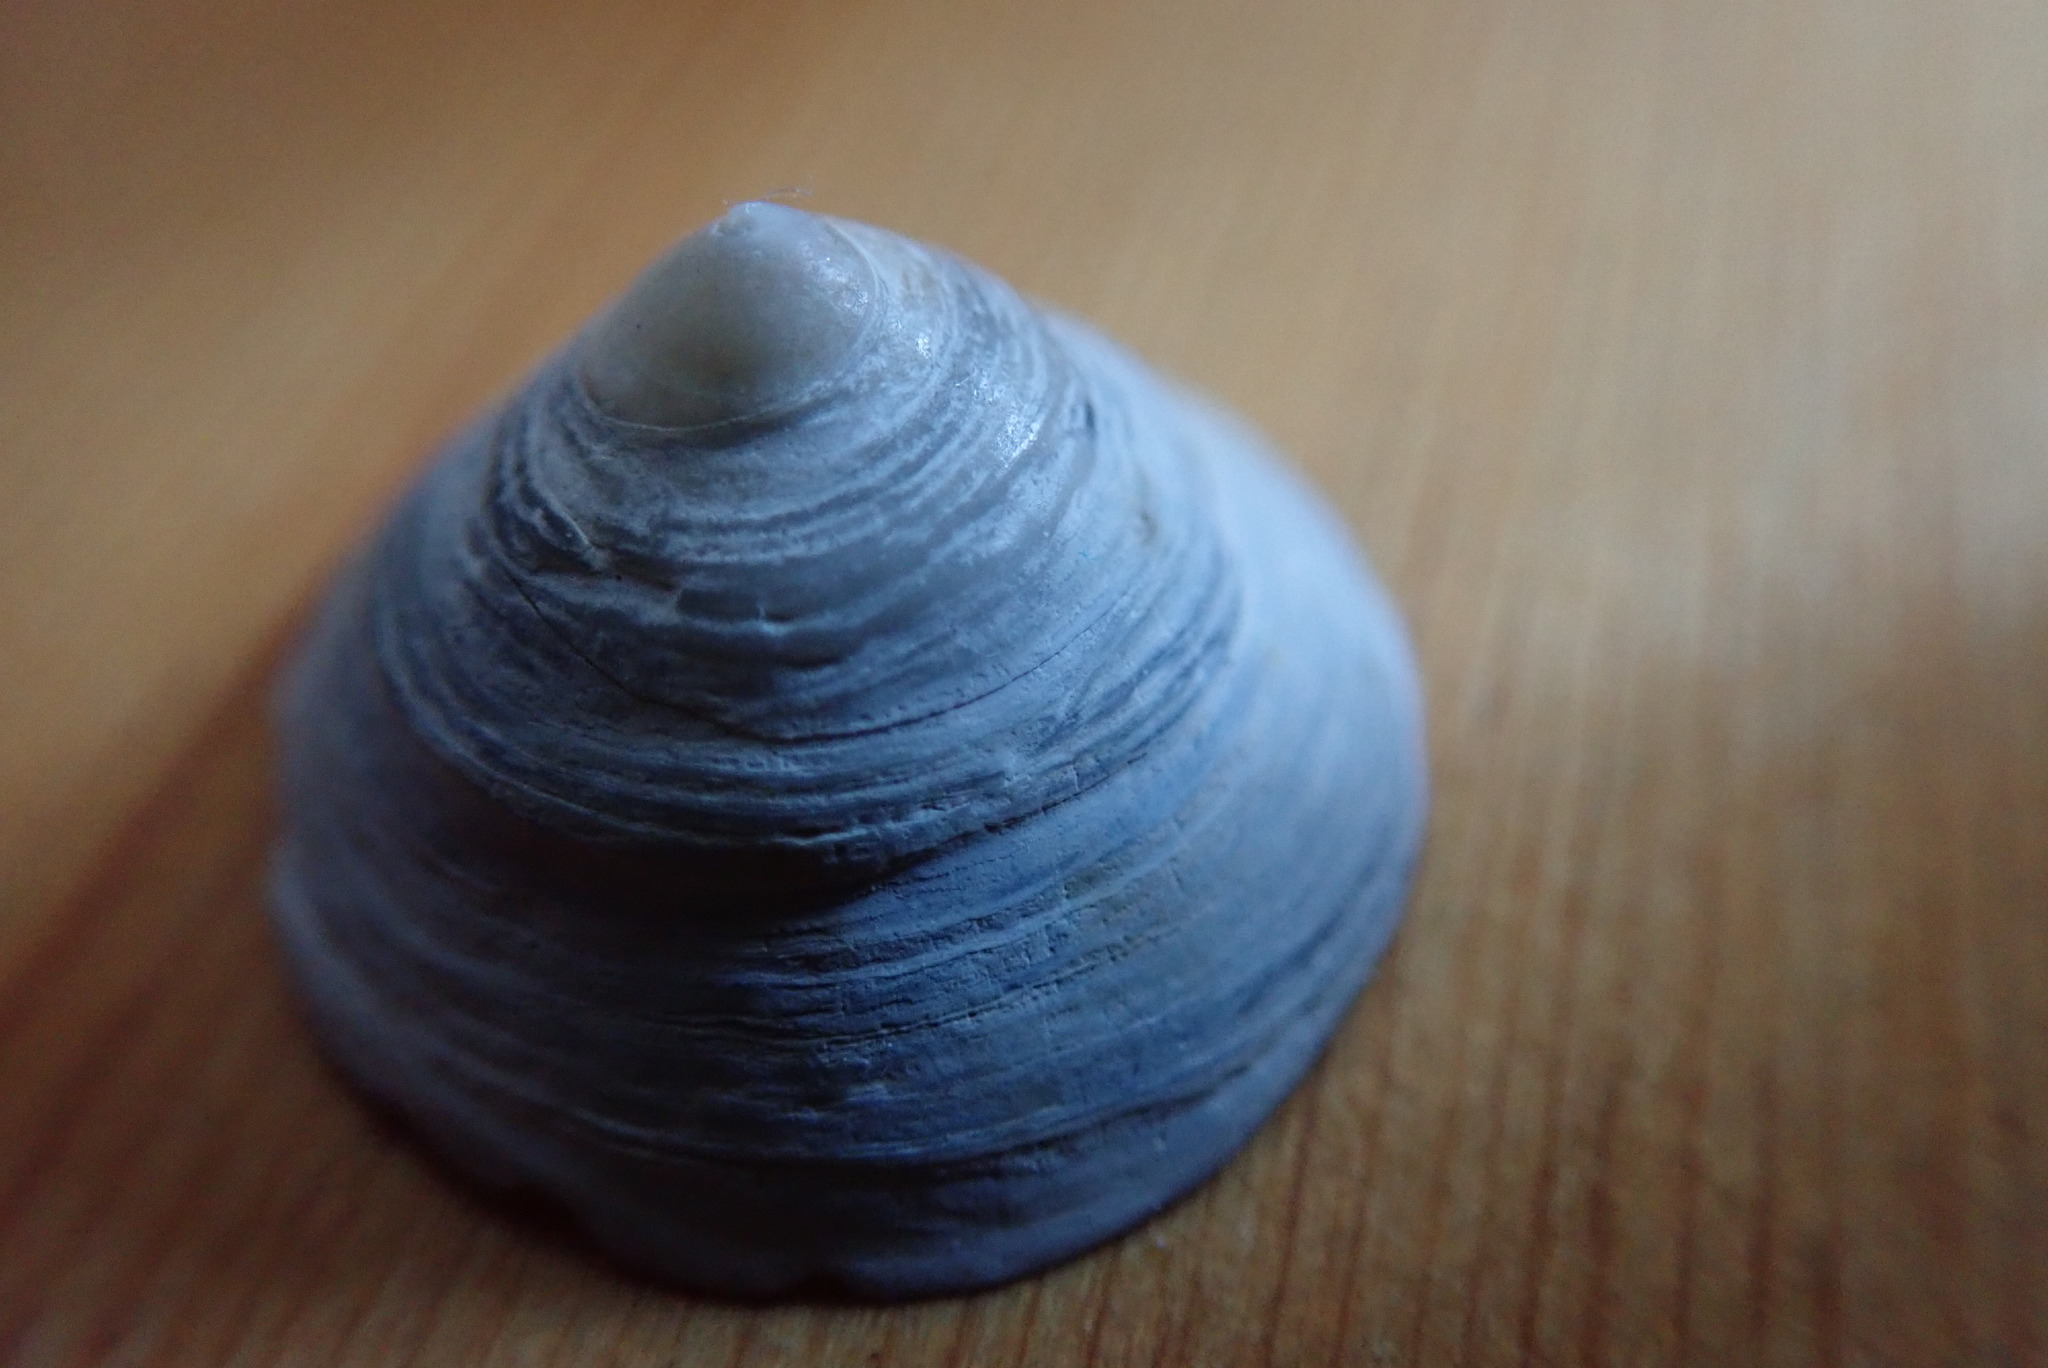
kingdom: Animalia
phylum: Mollusca
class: Gastropoda
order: Littorinimorpha
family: Calyptraeidae
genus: Calyptraea
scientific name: Calyptraea fastigiata
